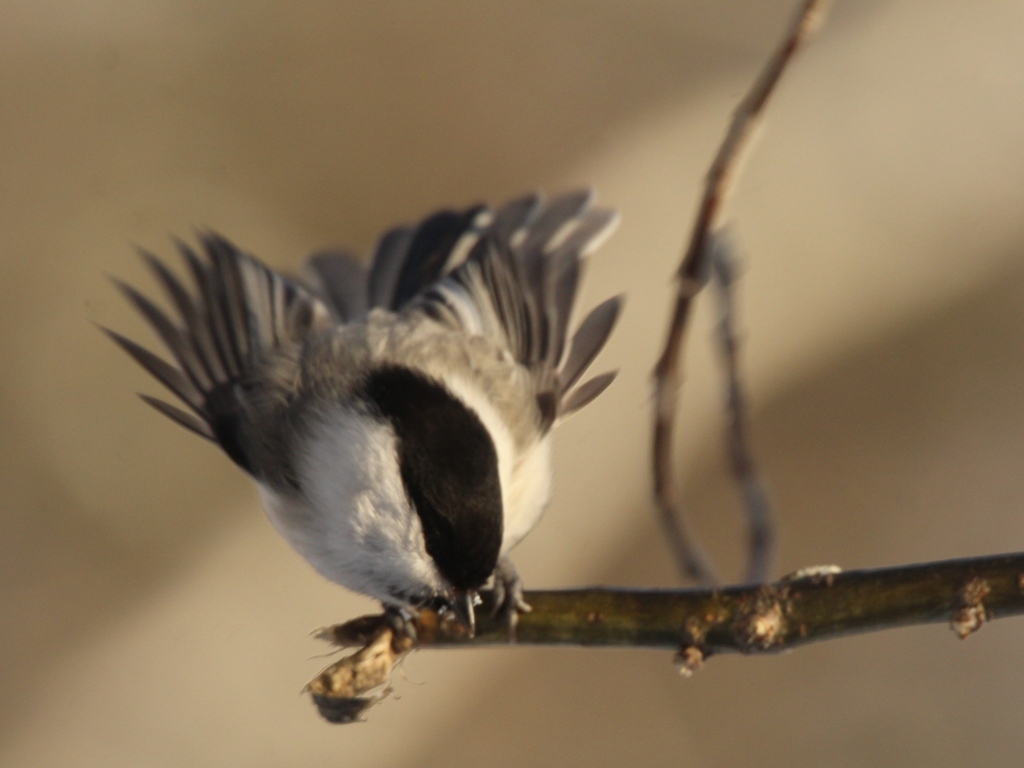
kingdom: Animalia
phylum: Chordata
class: Aves
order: Passeriformes
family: Paridae
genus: Poecile
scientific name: Poecile montanus
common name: Willow tit
